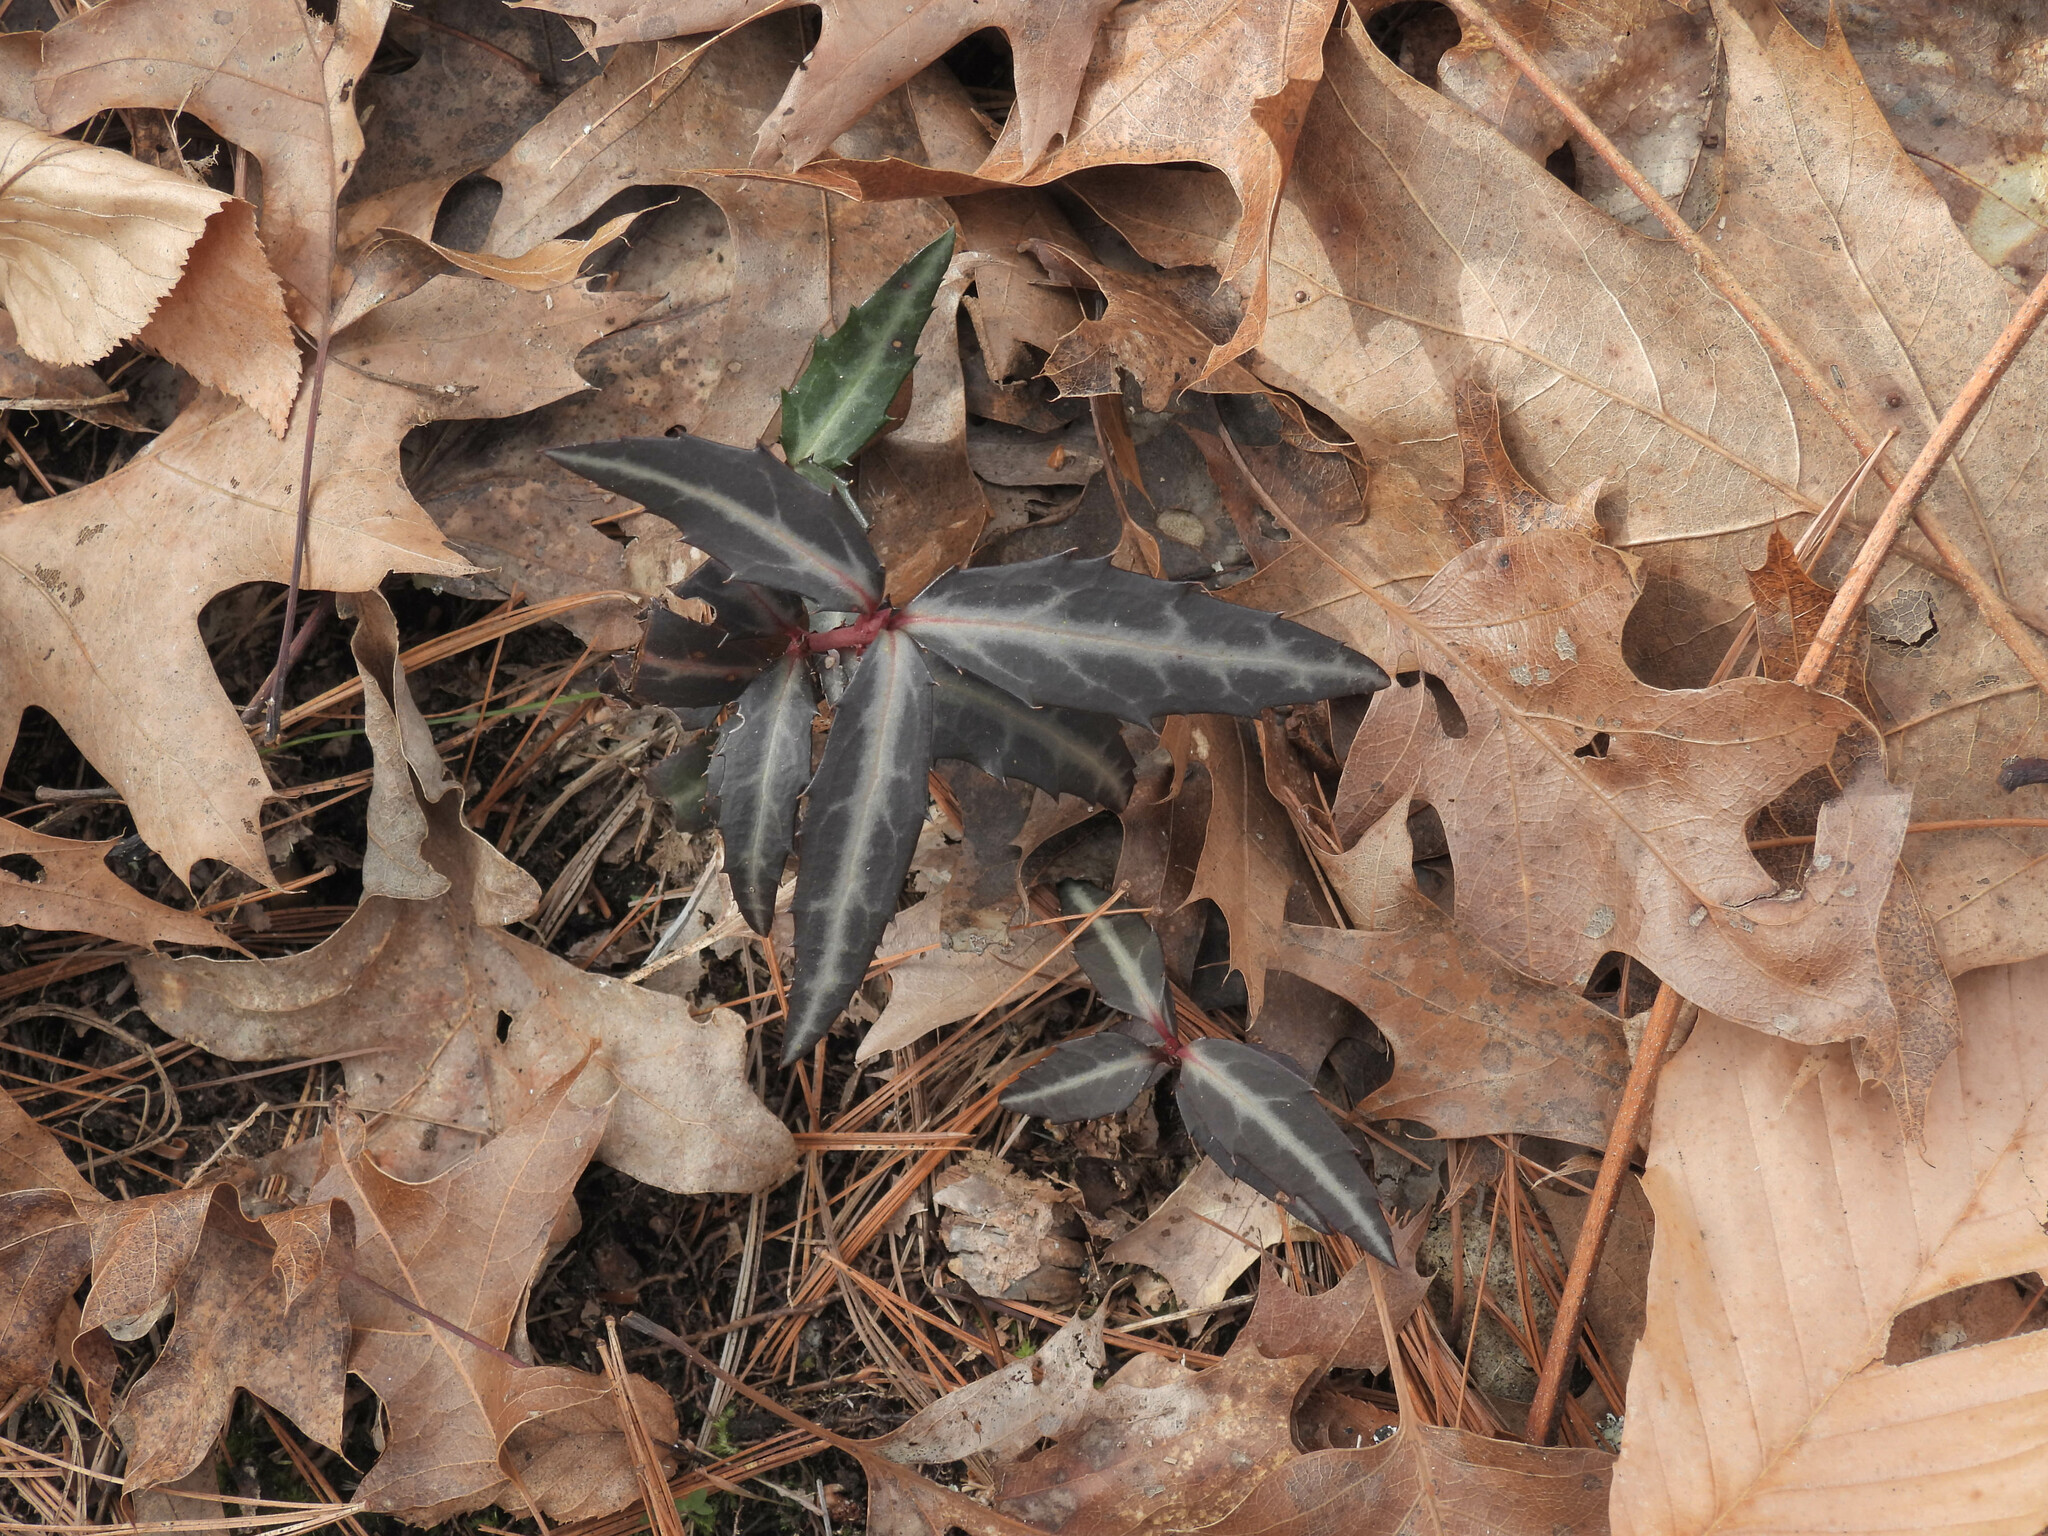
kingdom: Plantae
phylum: Tracheophyta
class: Magnoliopsida
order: Ericales
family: Ericaceae
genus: Chimaphila
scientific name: Chimaphila maculata
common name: Spotted pipsissewa
